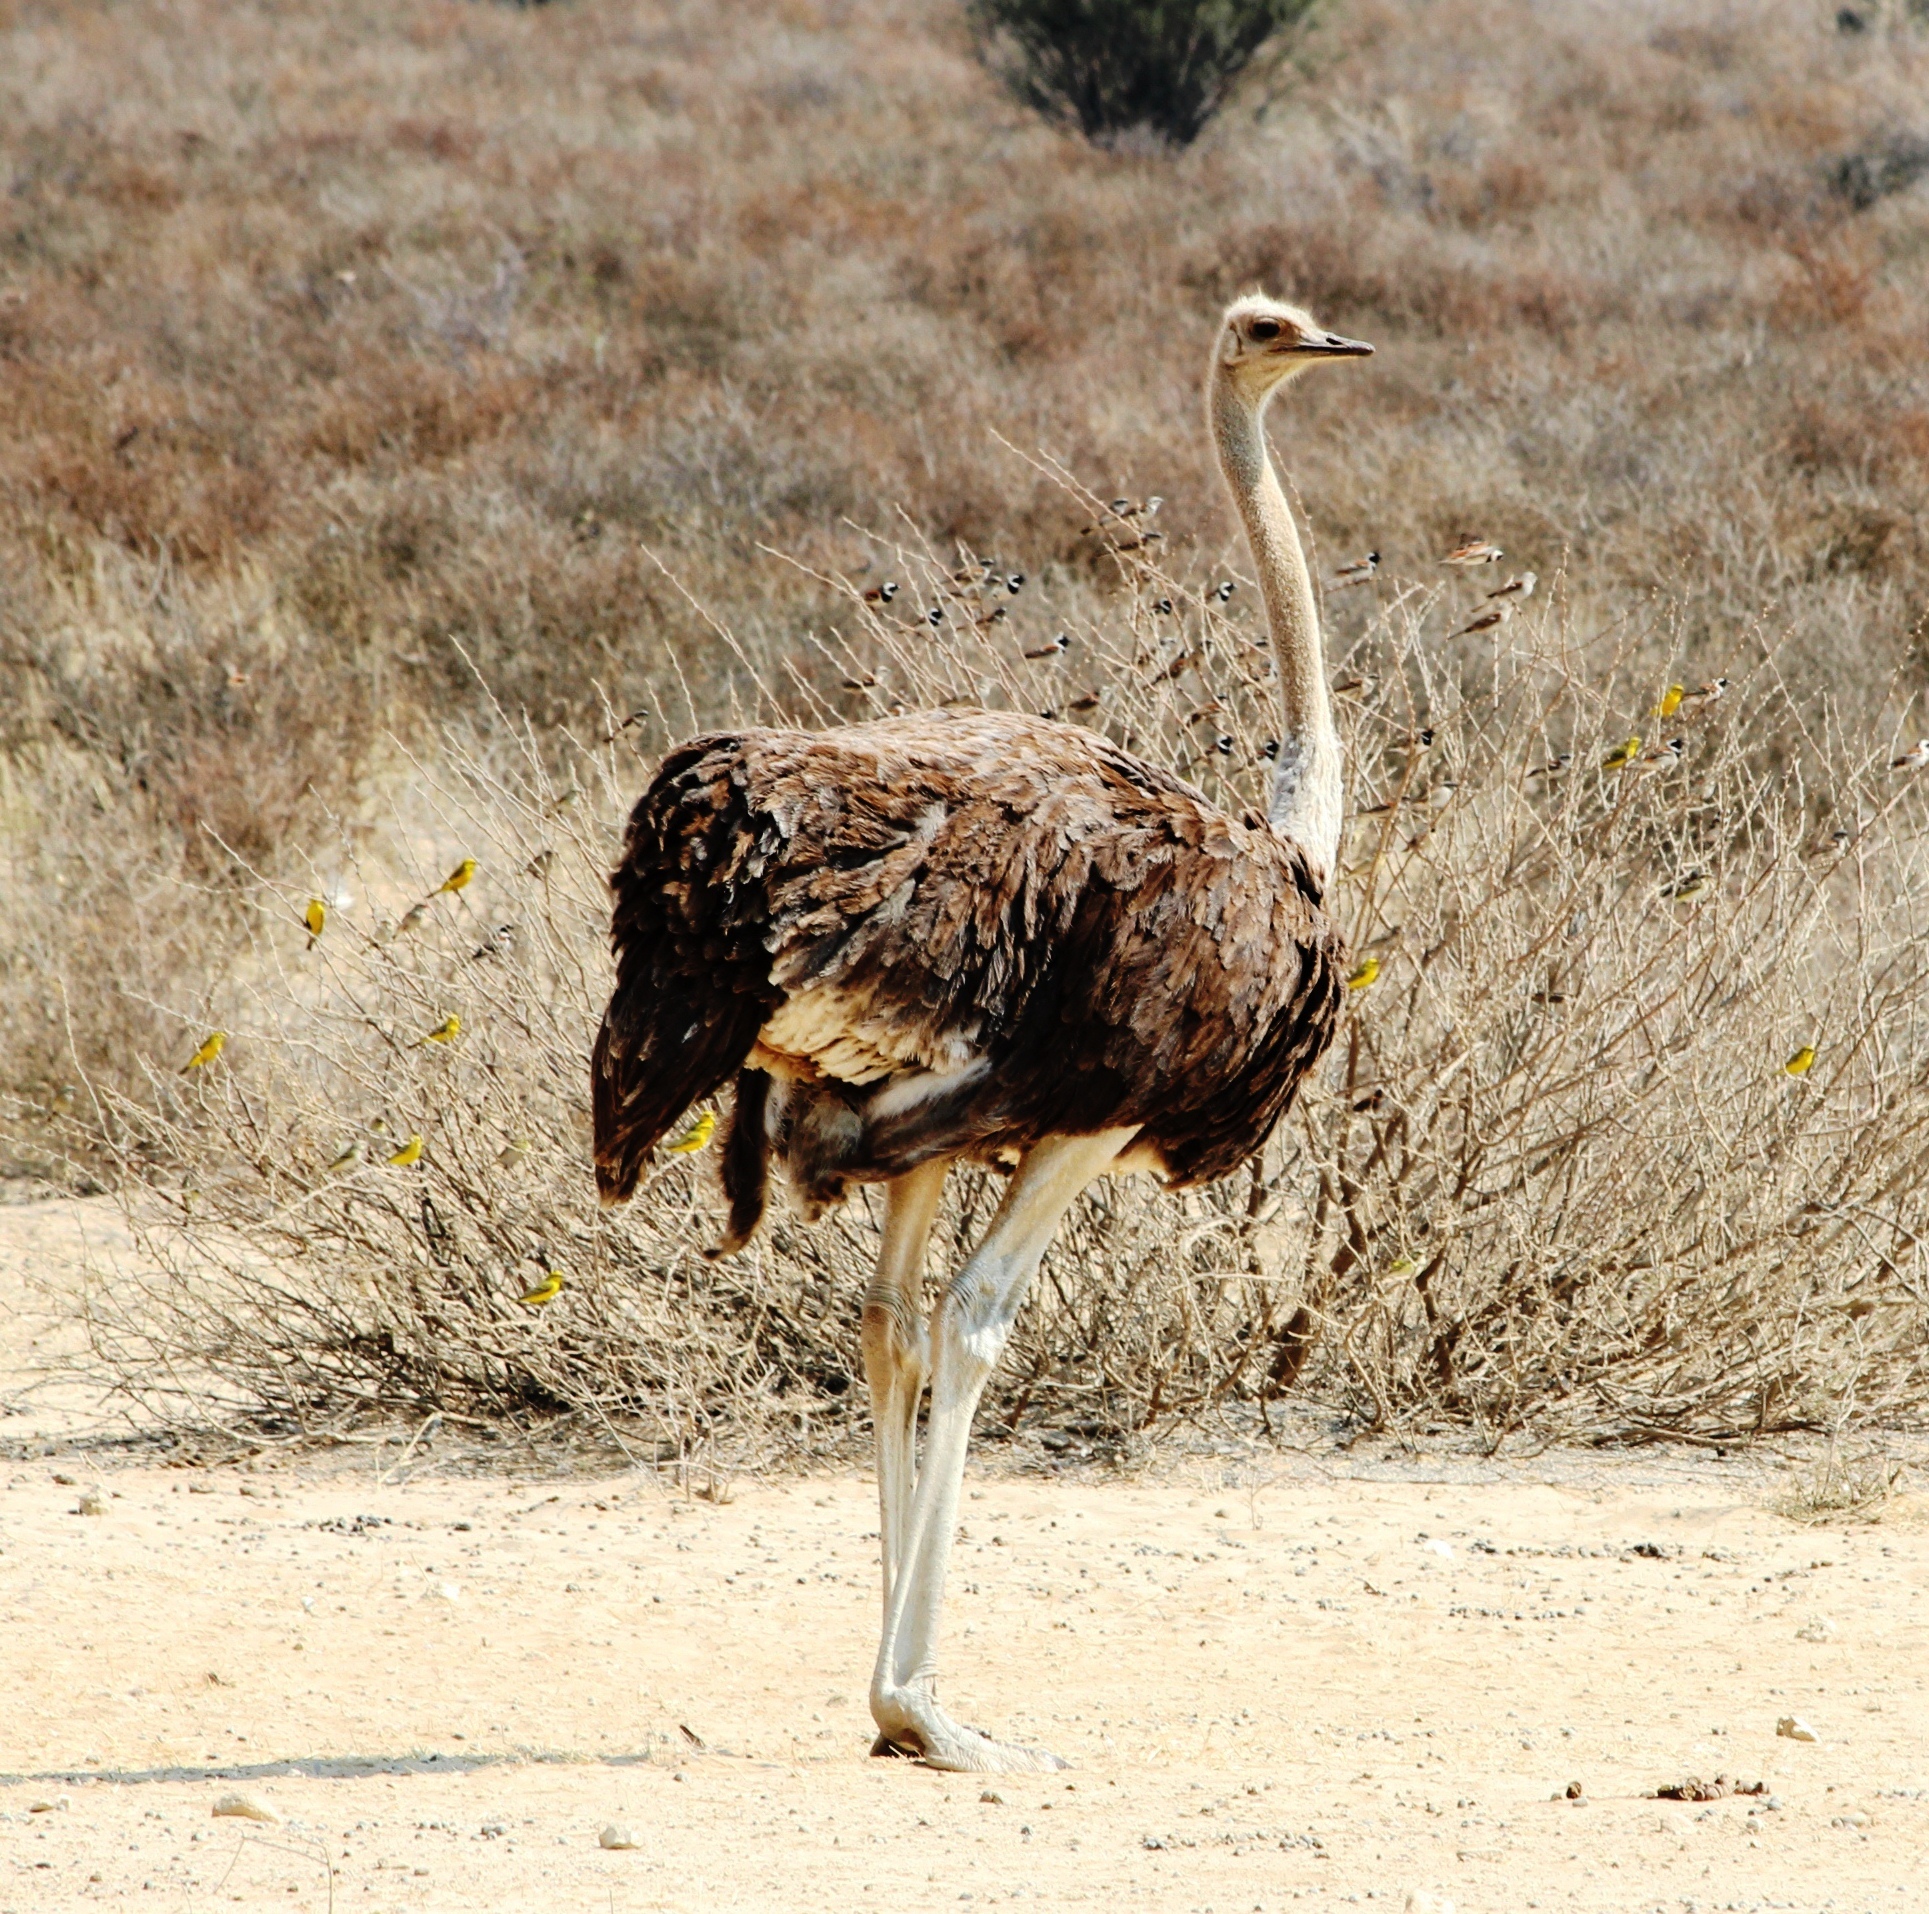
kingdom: Animalia
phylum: Chordata
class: Aves
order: Struthioniformes
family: Struthionidae
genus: Struthio
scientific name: Struthio camelus
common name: Common ostrich
